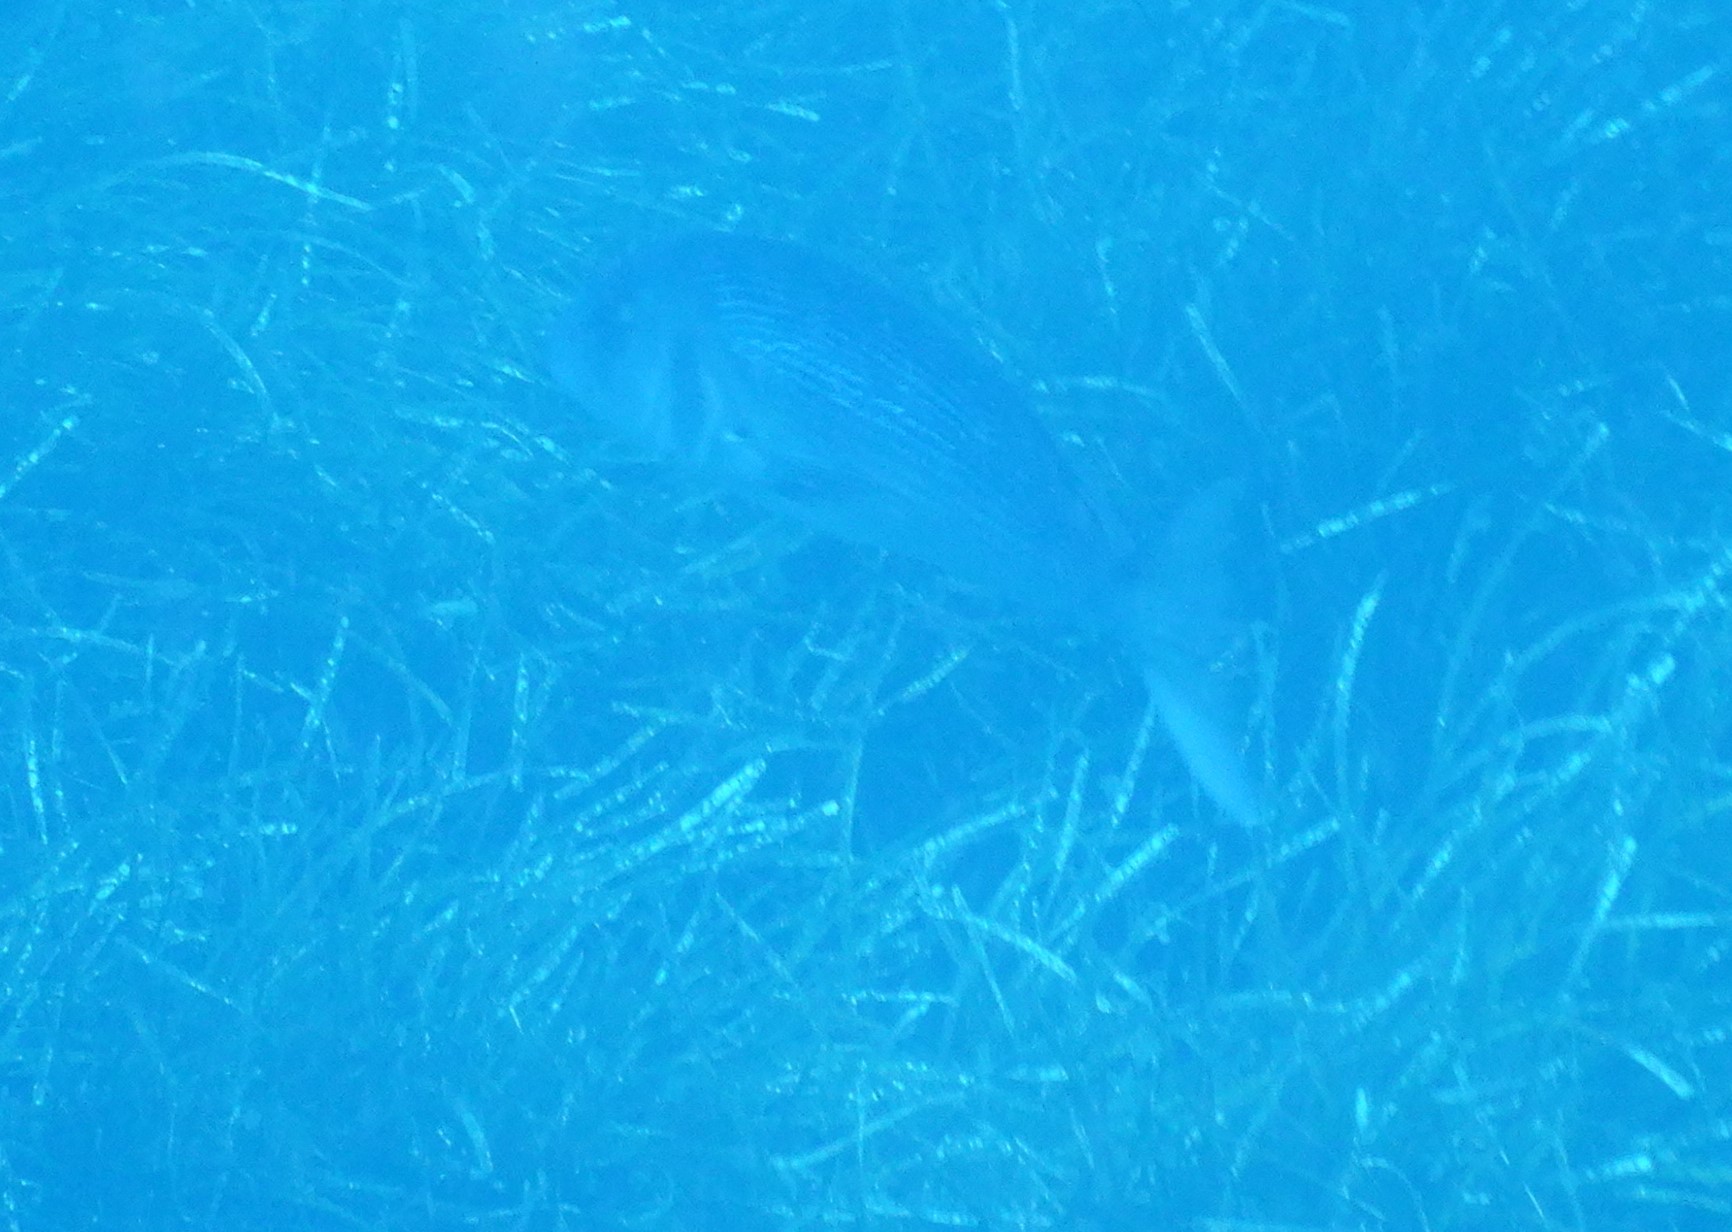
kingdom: Animalia
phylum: Chordata
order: Perciformes
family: Sparidae
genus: Dentex
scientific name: Dentex dentex
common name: Dentex
